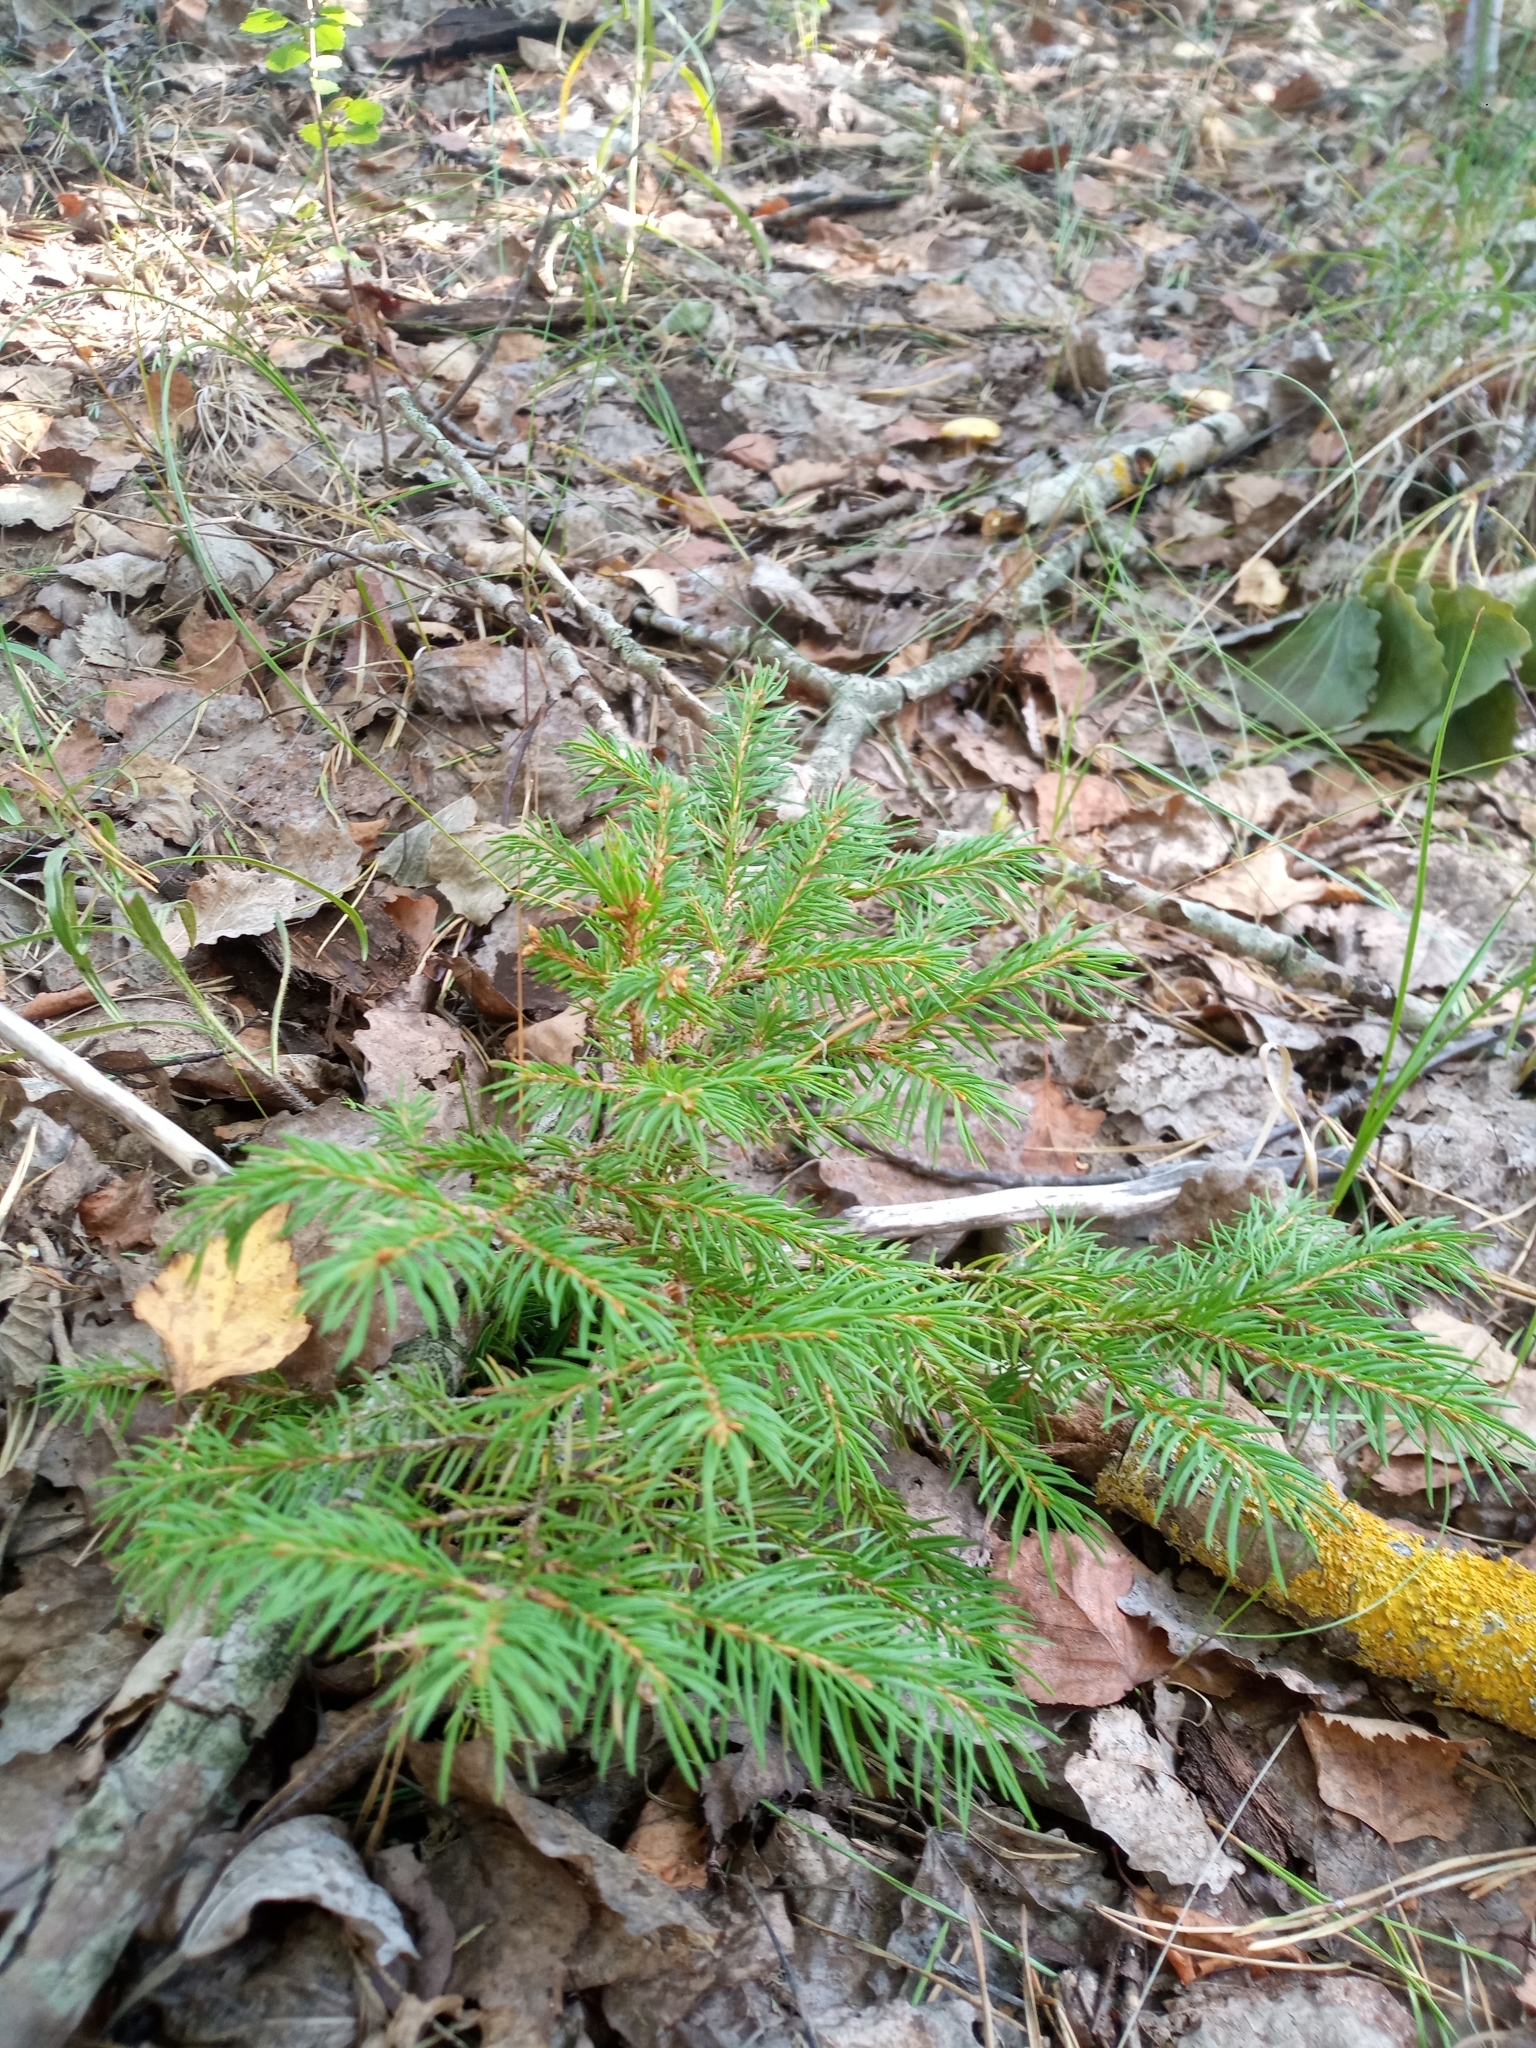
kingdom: Plantae
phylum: Tracheophyta
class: Pinopsida
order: Pinales
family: Pinaceae
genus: Picea
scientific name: Picea abies
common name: Norway spruce
